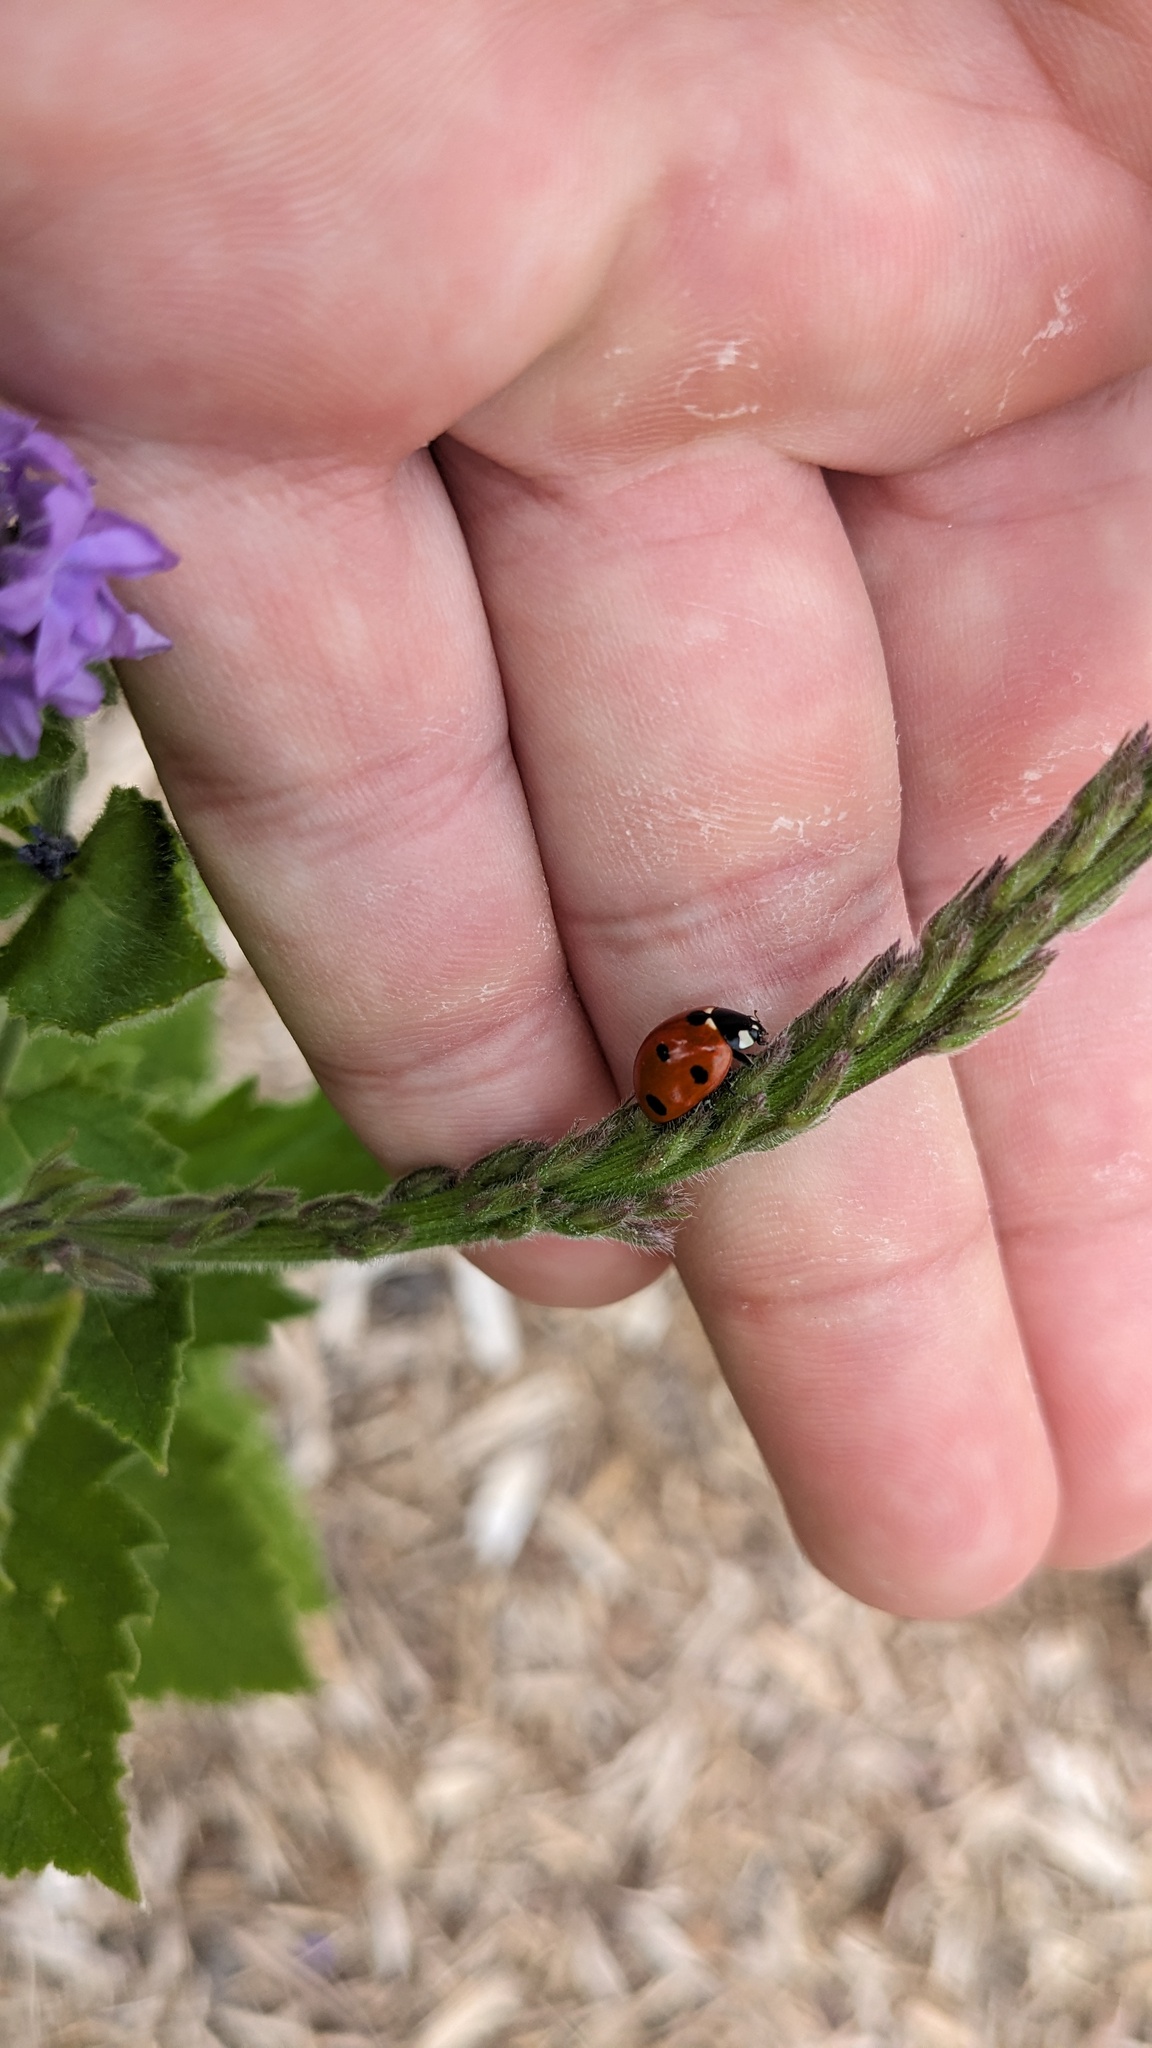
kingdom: Animalia
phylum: Arthropoda
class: Insecta
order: Coleoptera
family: Coccinellidae
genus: Coccinella
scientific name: Coccinella septempunctata
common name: Sevenspotted lady beetle
